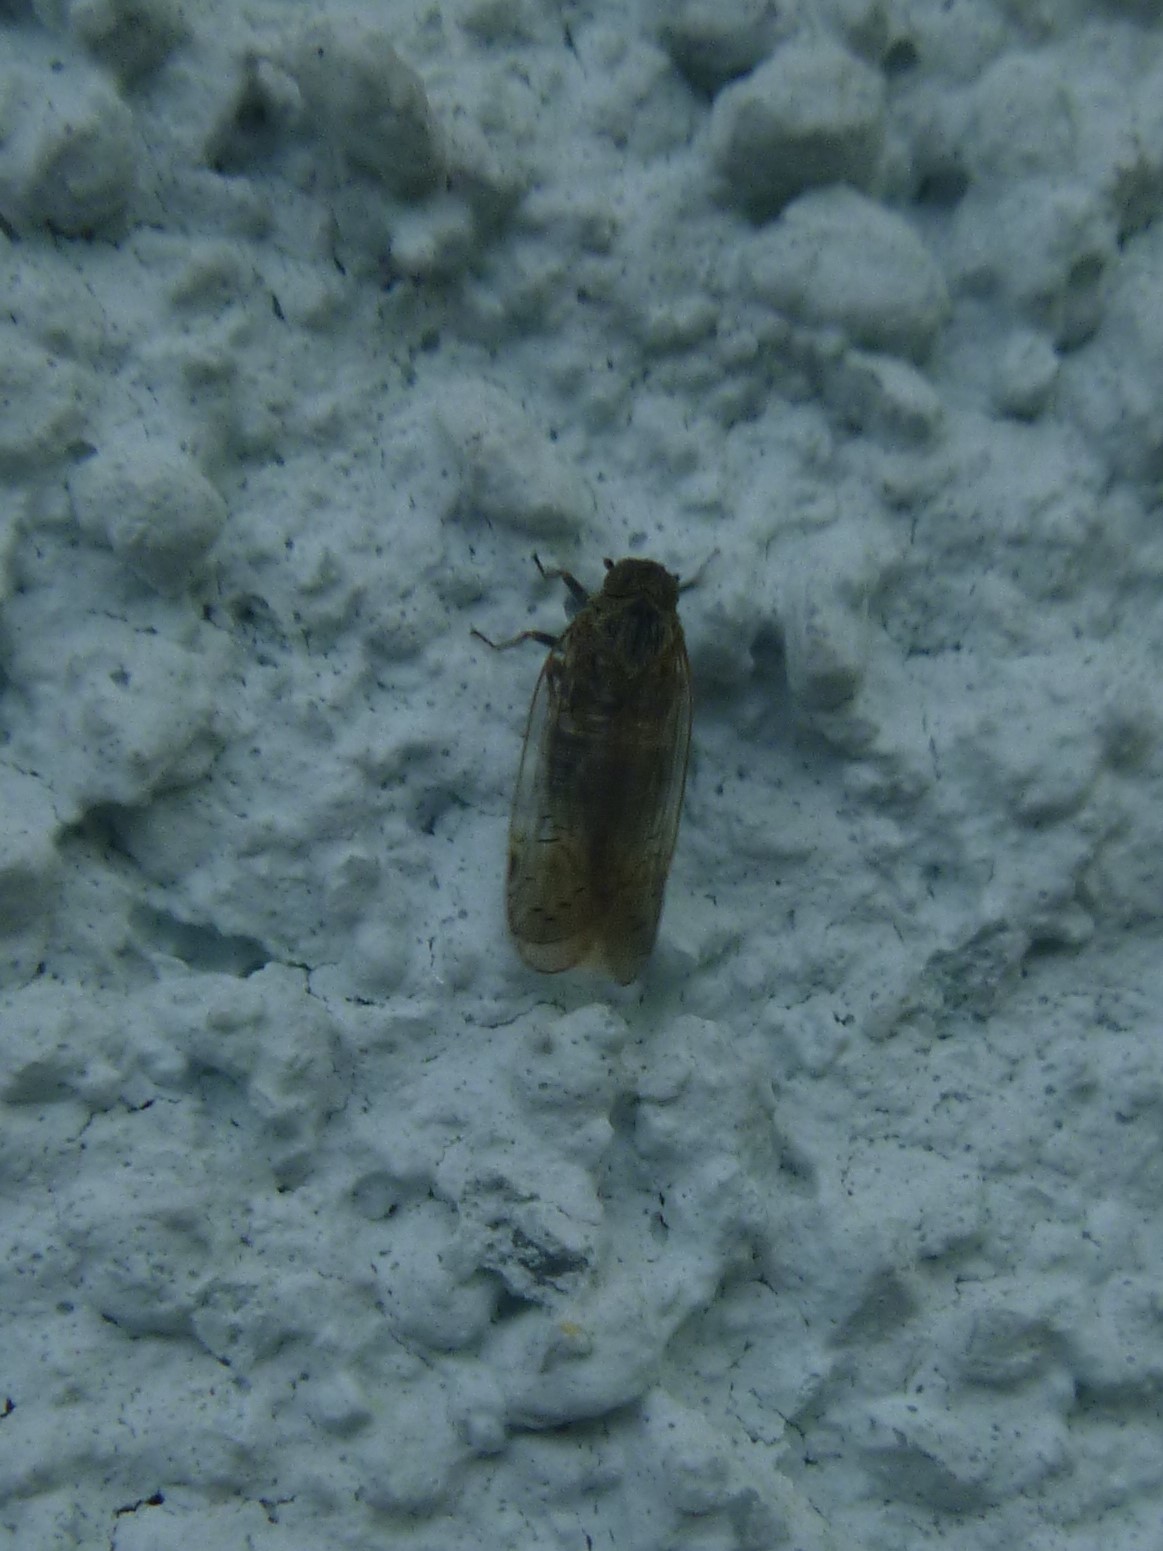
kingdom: Animalia
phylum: Arthropoda
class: Insecta
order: Hemiptera
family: Cixiidae
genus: Reptalus
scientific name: Reptalus cuspidatus
